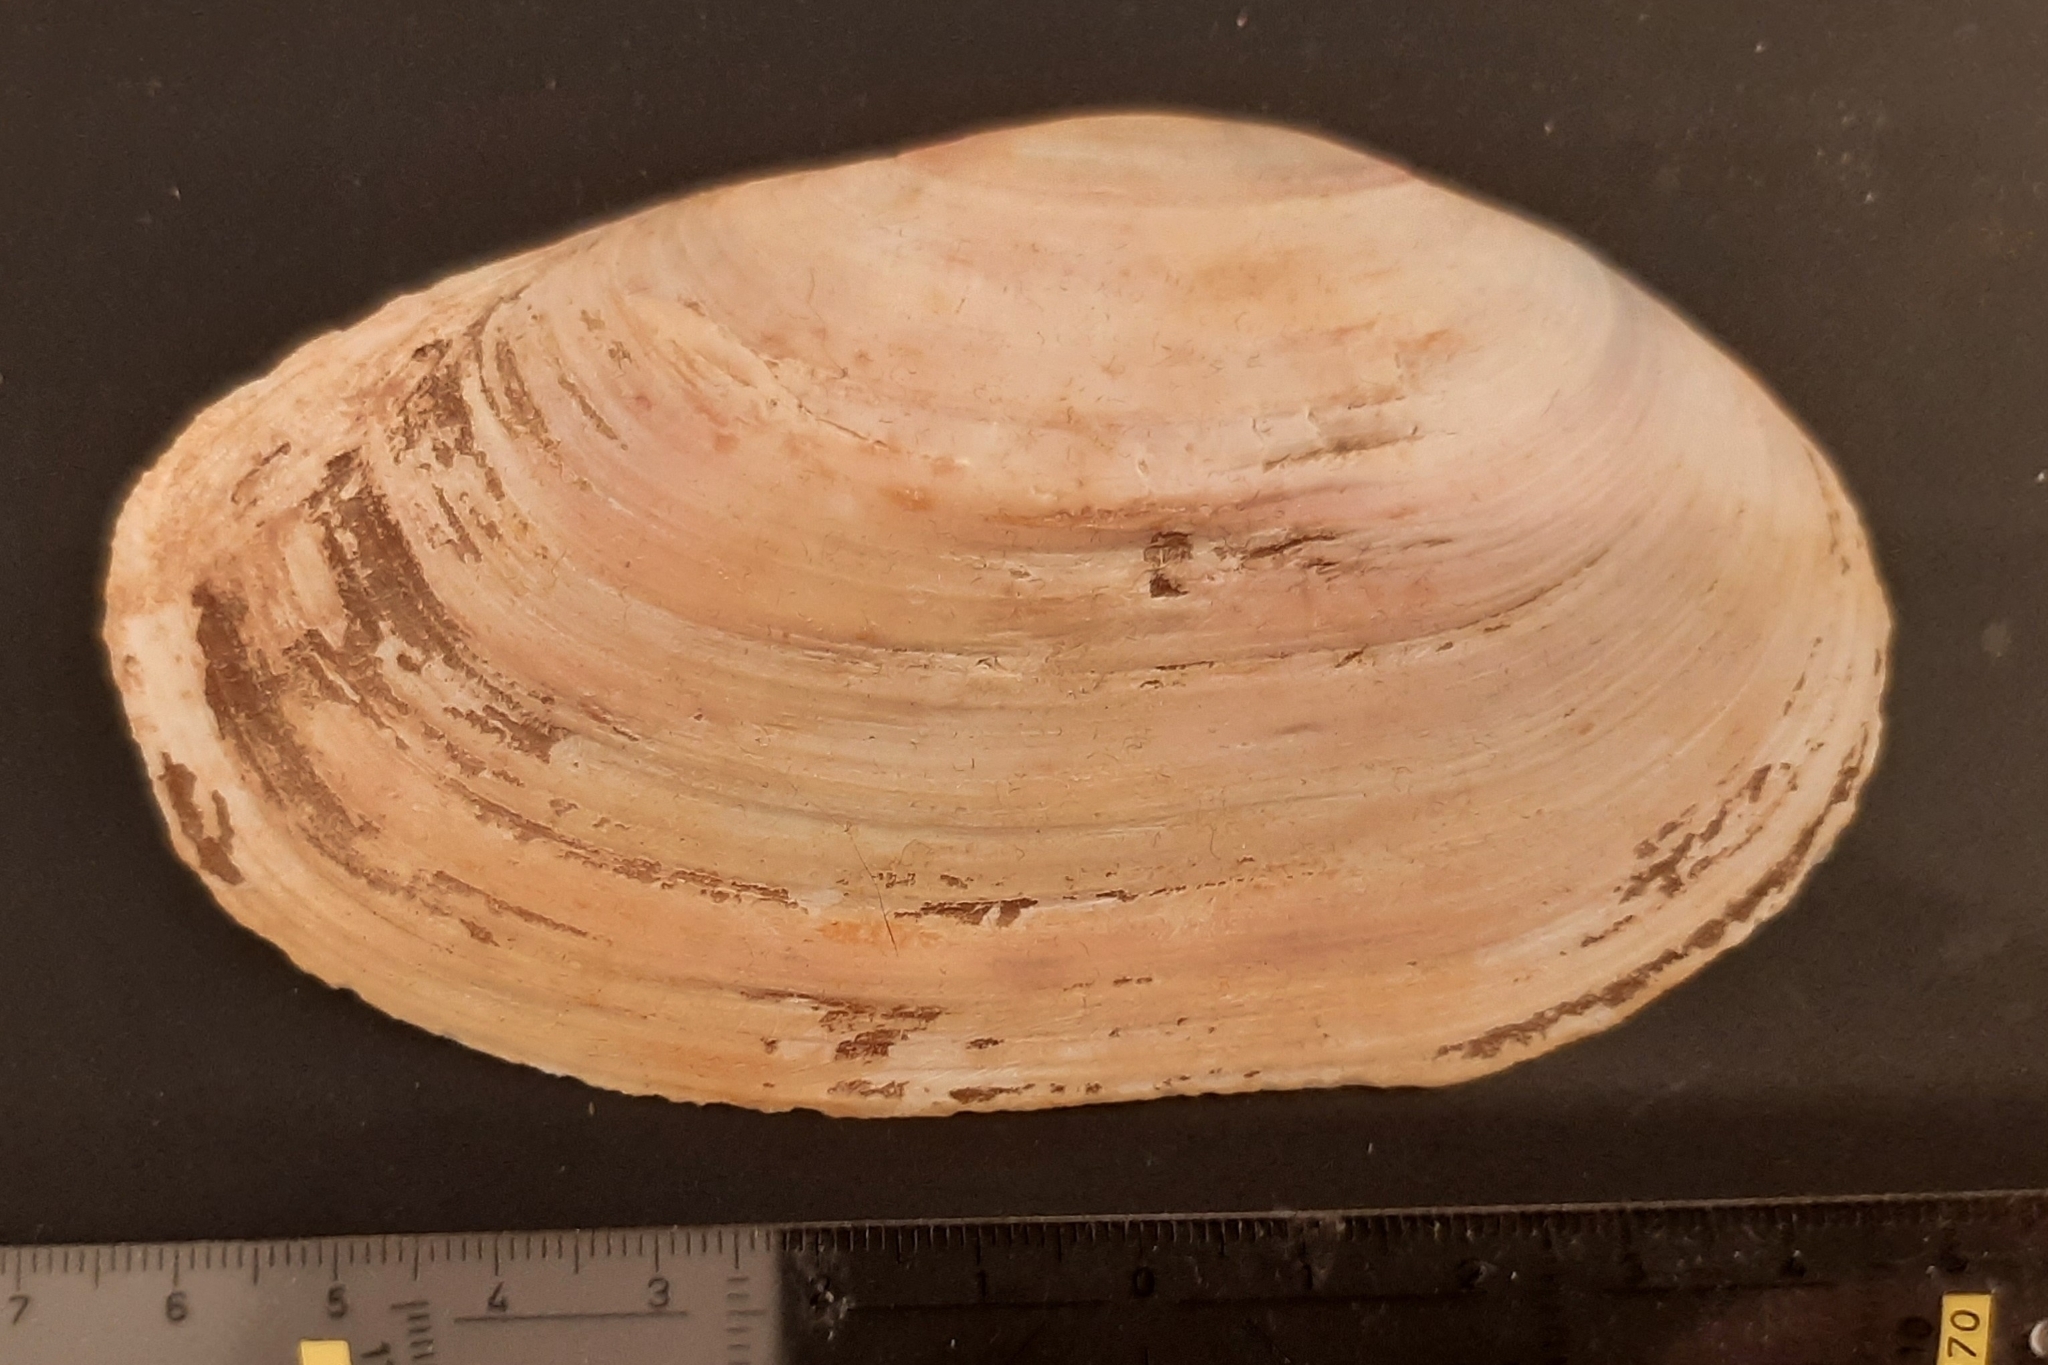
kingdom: Animalia
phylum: Mollusca
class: Bivalvia
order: Venerida
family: Mactridae
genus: Lutraria
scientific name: Lutraria lutraria
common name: Common otter shell
